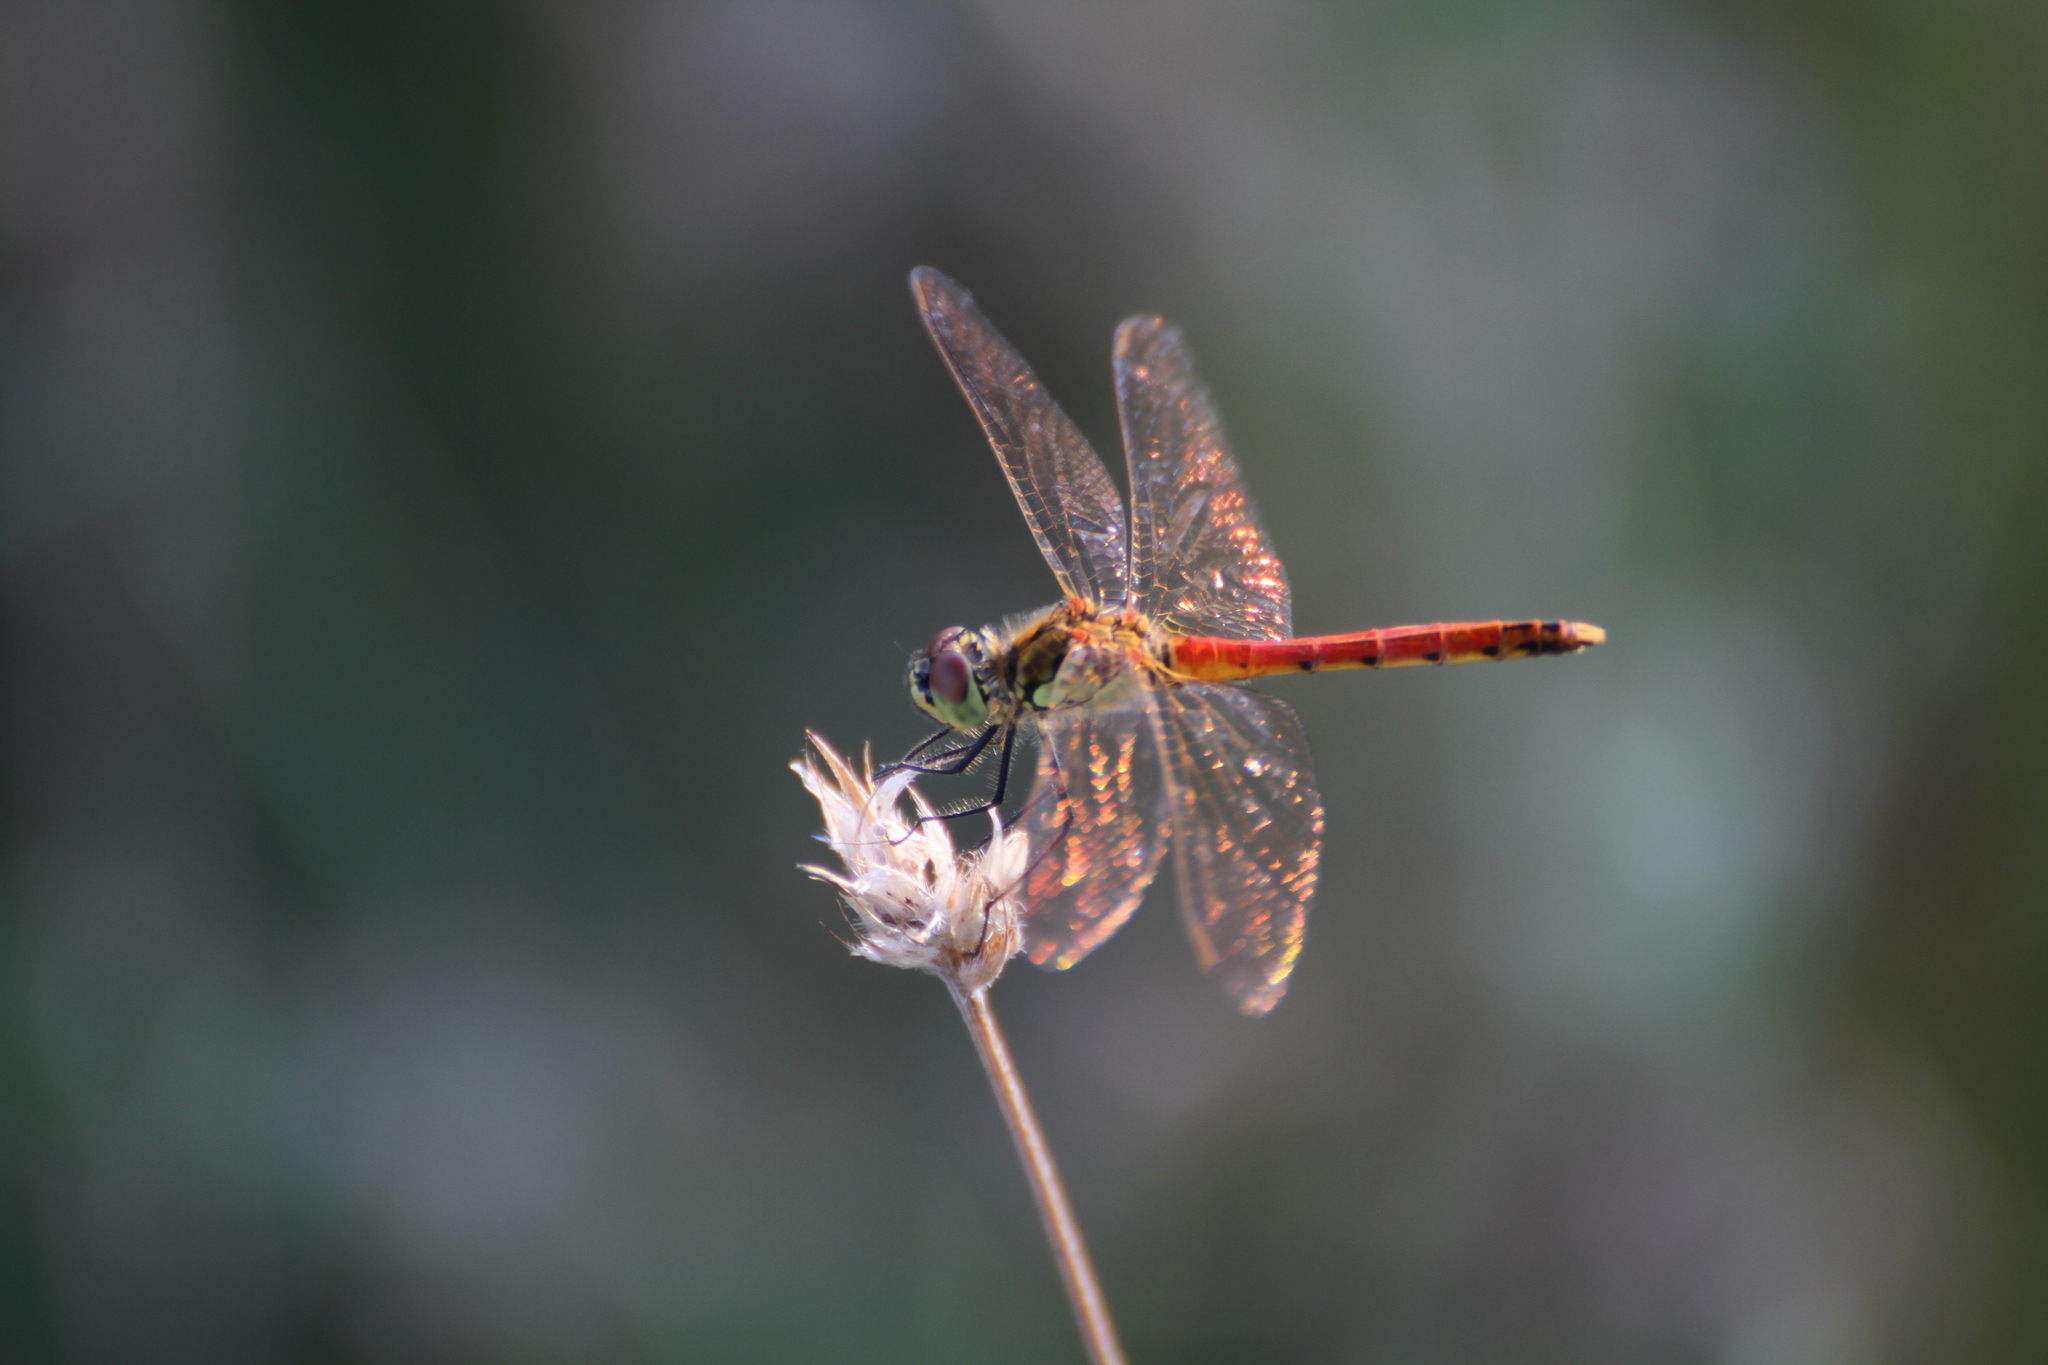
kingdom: Animalia
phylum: Arthropoda
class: Insecta
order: Odonata
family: Libellulidae
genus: Sympetrum
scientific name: Sympetrum depressiusculum
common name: Spotted darter
